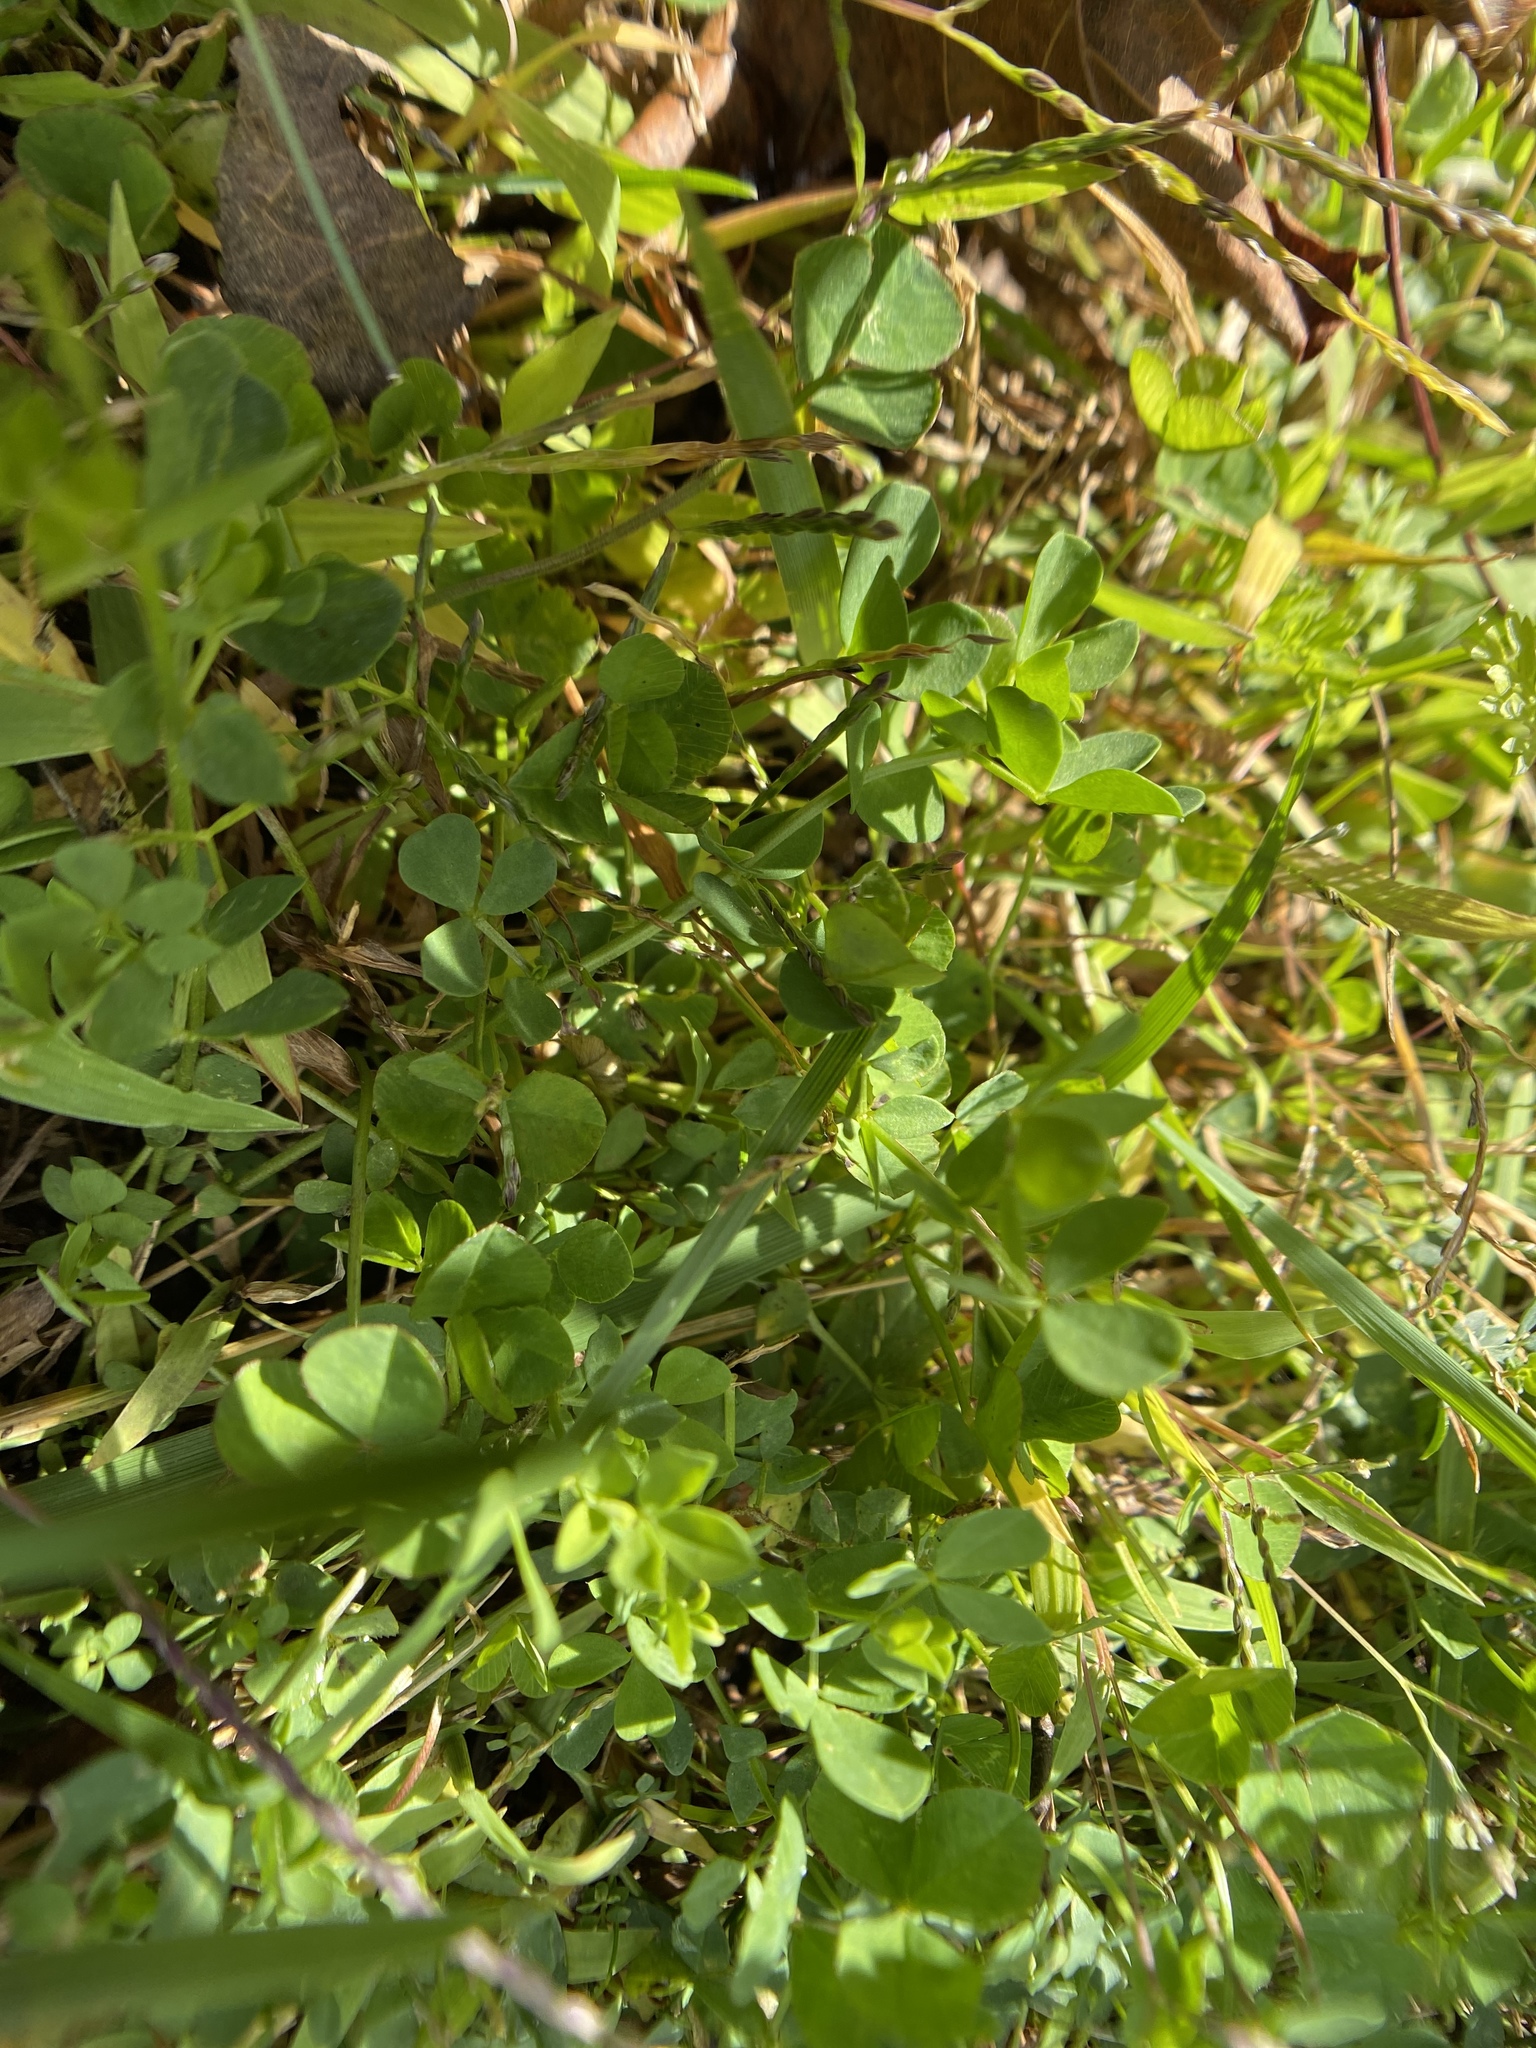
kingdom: Plantae
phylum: Tracheophyta
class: Magnoliopsida
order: Fabales
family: Fabaceae
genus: Lotus
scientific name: Lotus corniculatus
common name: Common bird's-foot-trefoil
